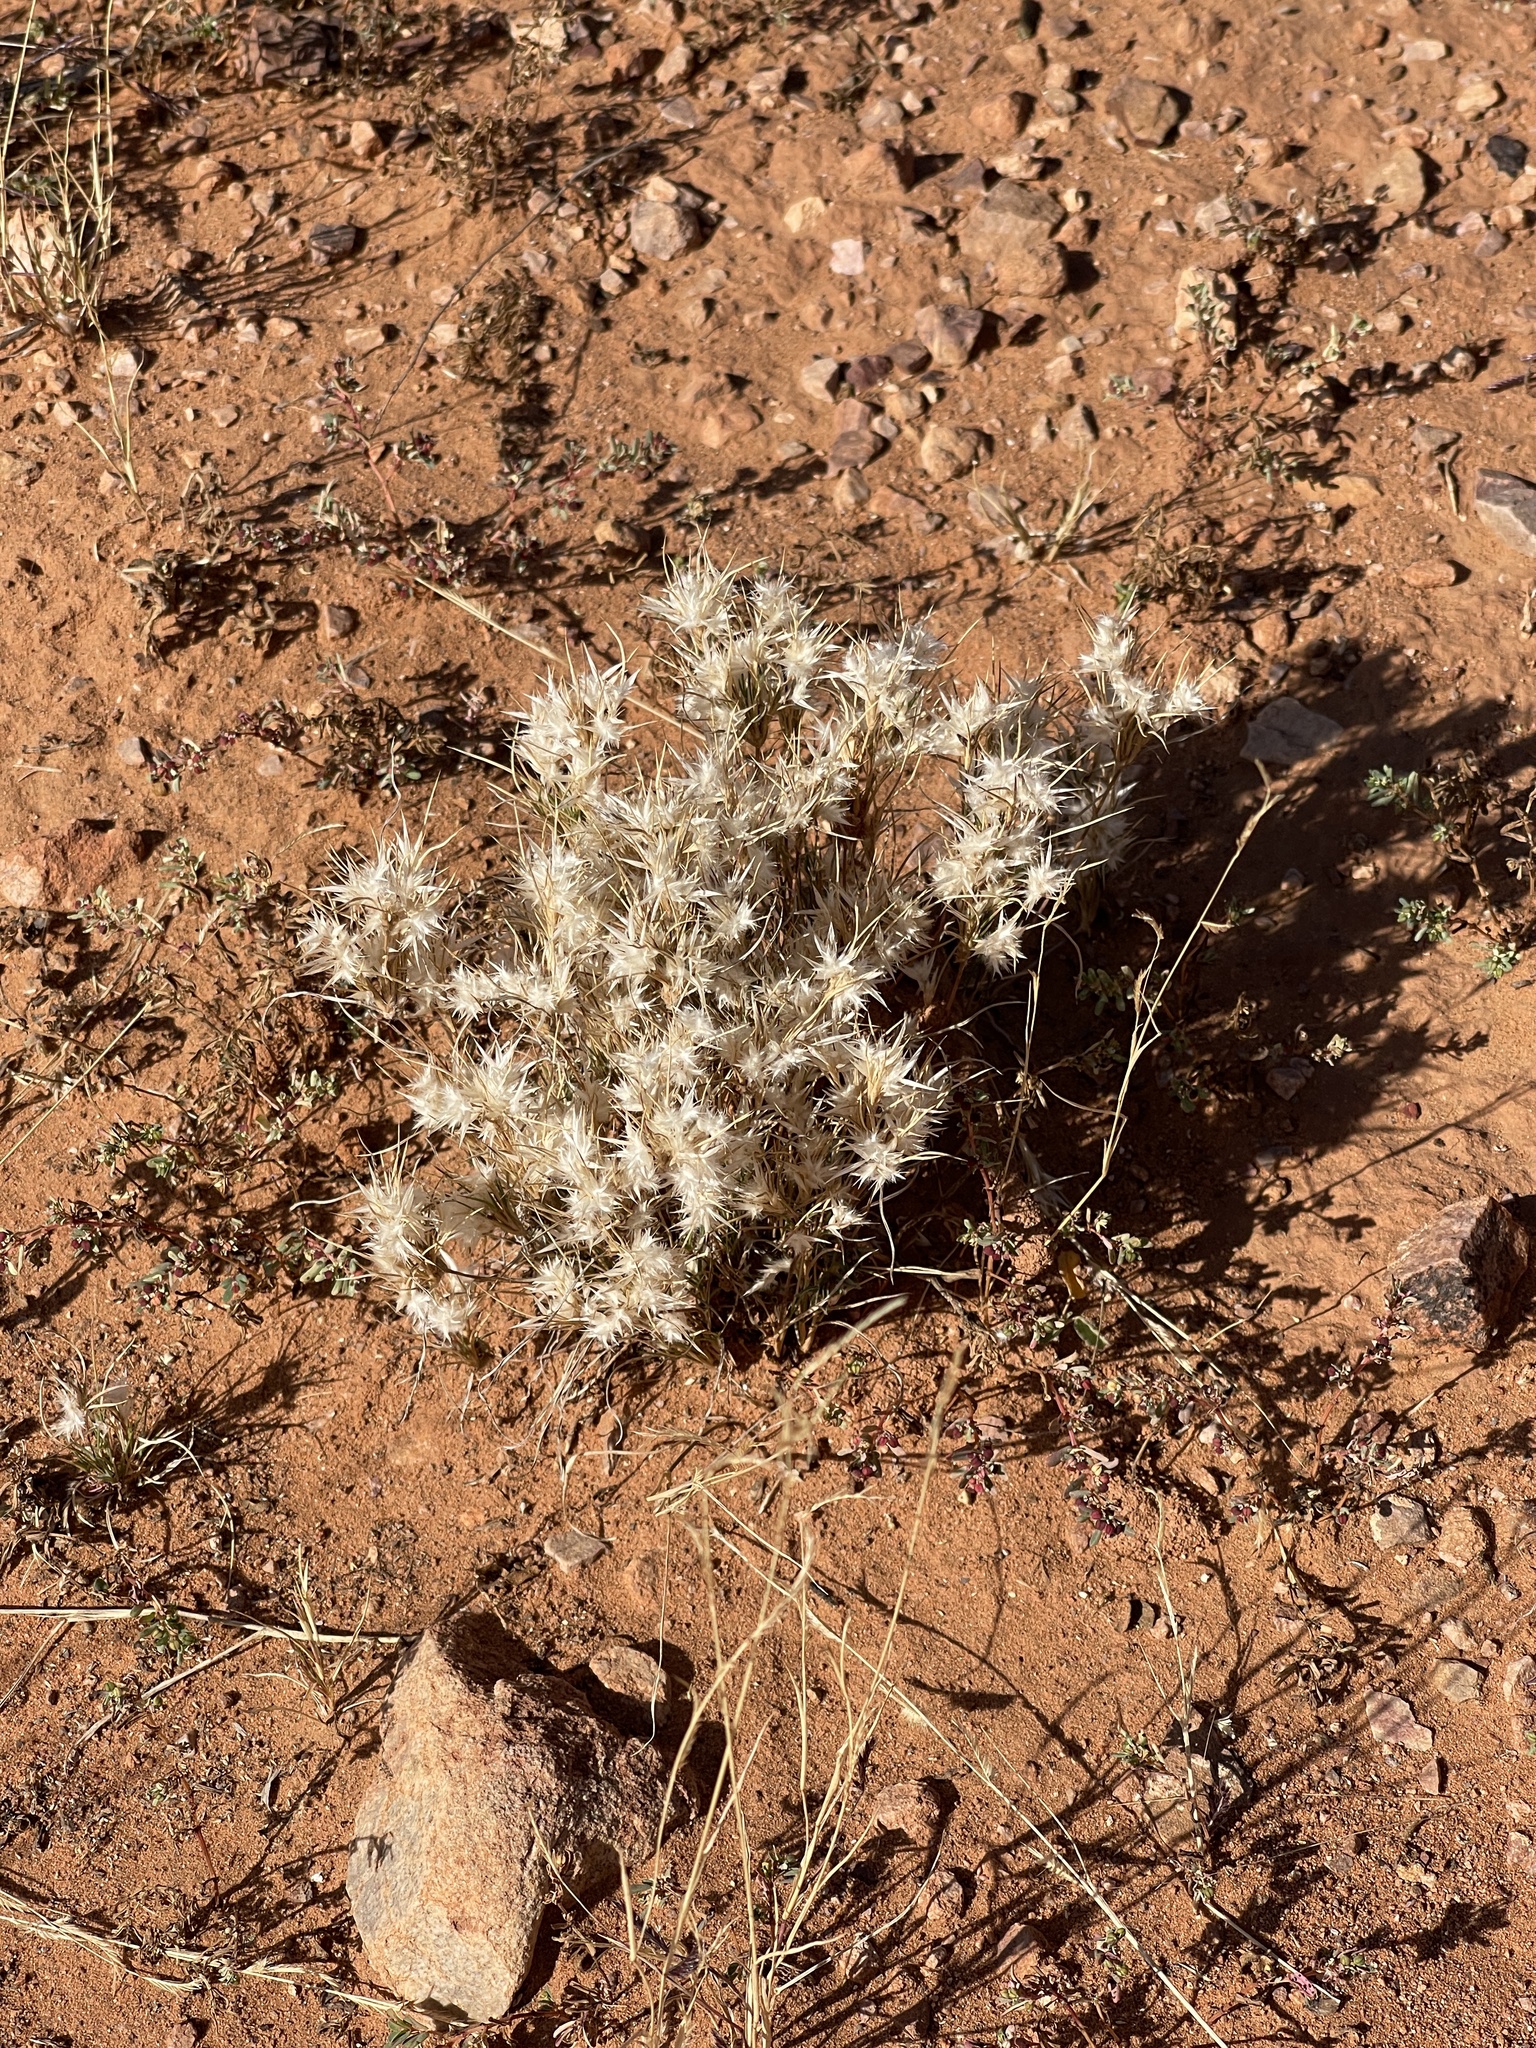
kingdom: Plantae
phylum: Tracheophyta
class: Liliopsida
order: Poales
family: Poaceae
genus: Dasyochloa
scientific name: Dasyochloa pulchella
